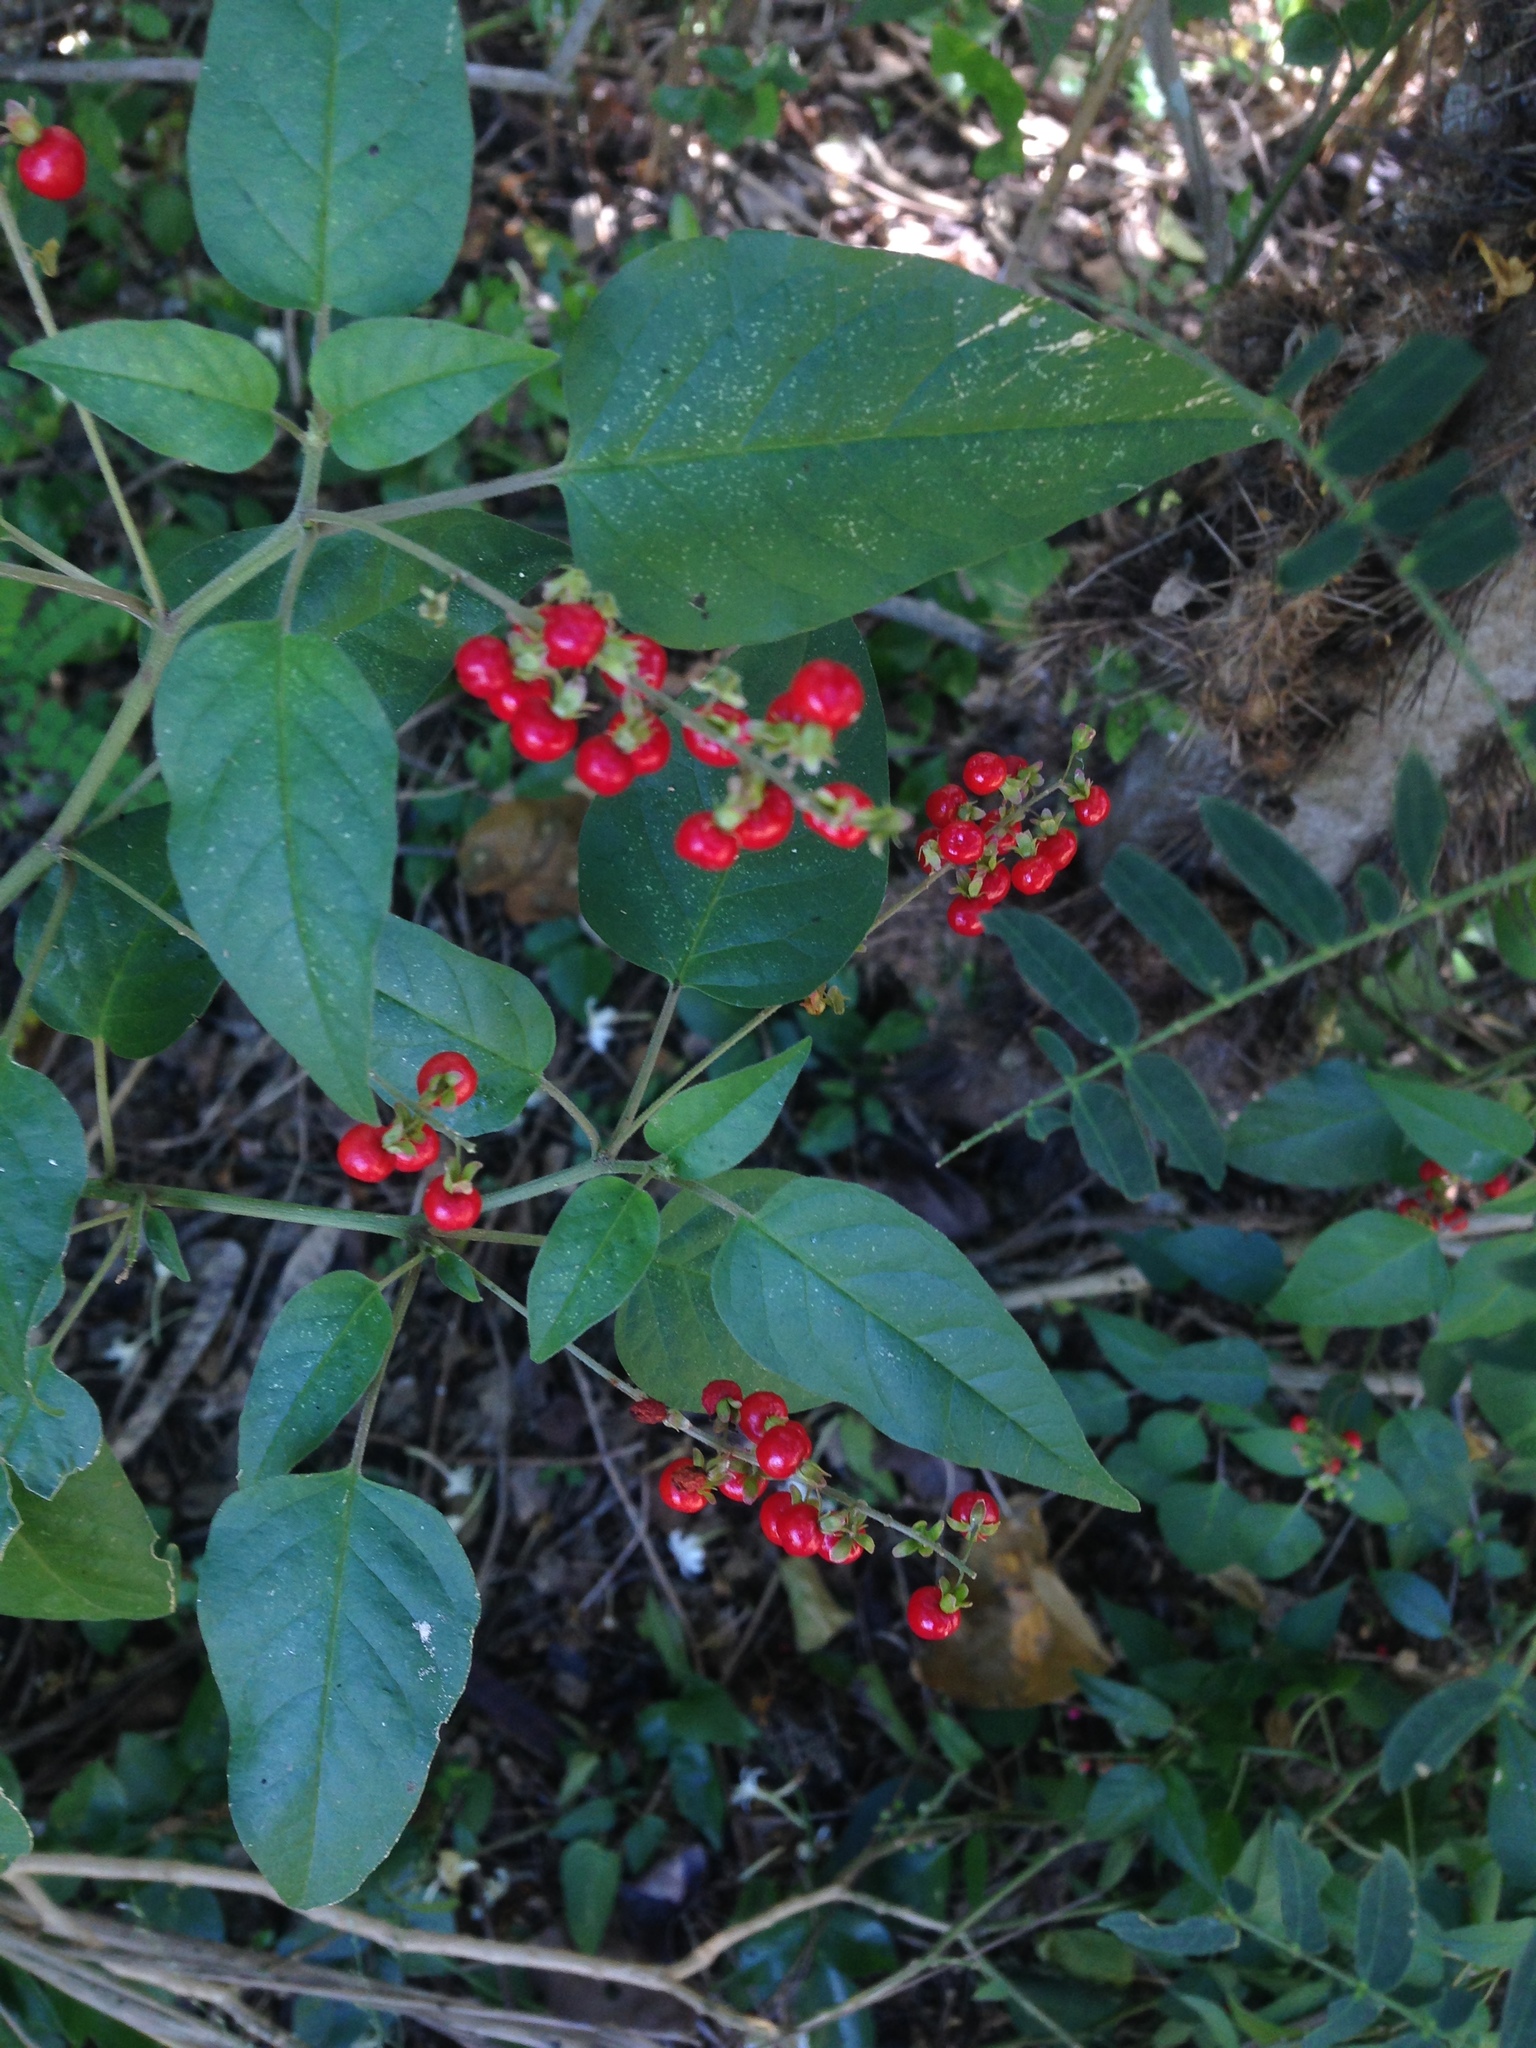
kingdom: Plantae
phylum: Tracheophyta
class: Magnoliopsida
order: Caryophyllales
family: Phytolaccaceae
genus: Rivina
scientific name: Rivina humilis
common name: Rougeplant
